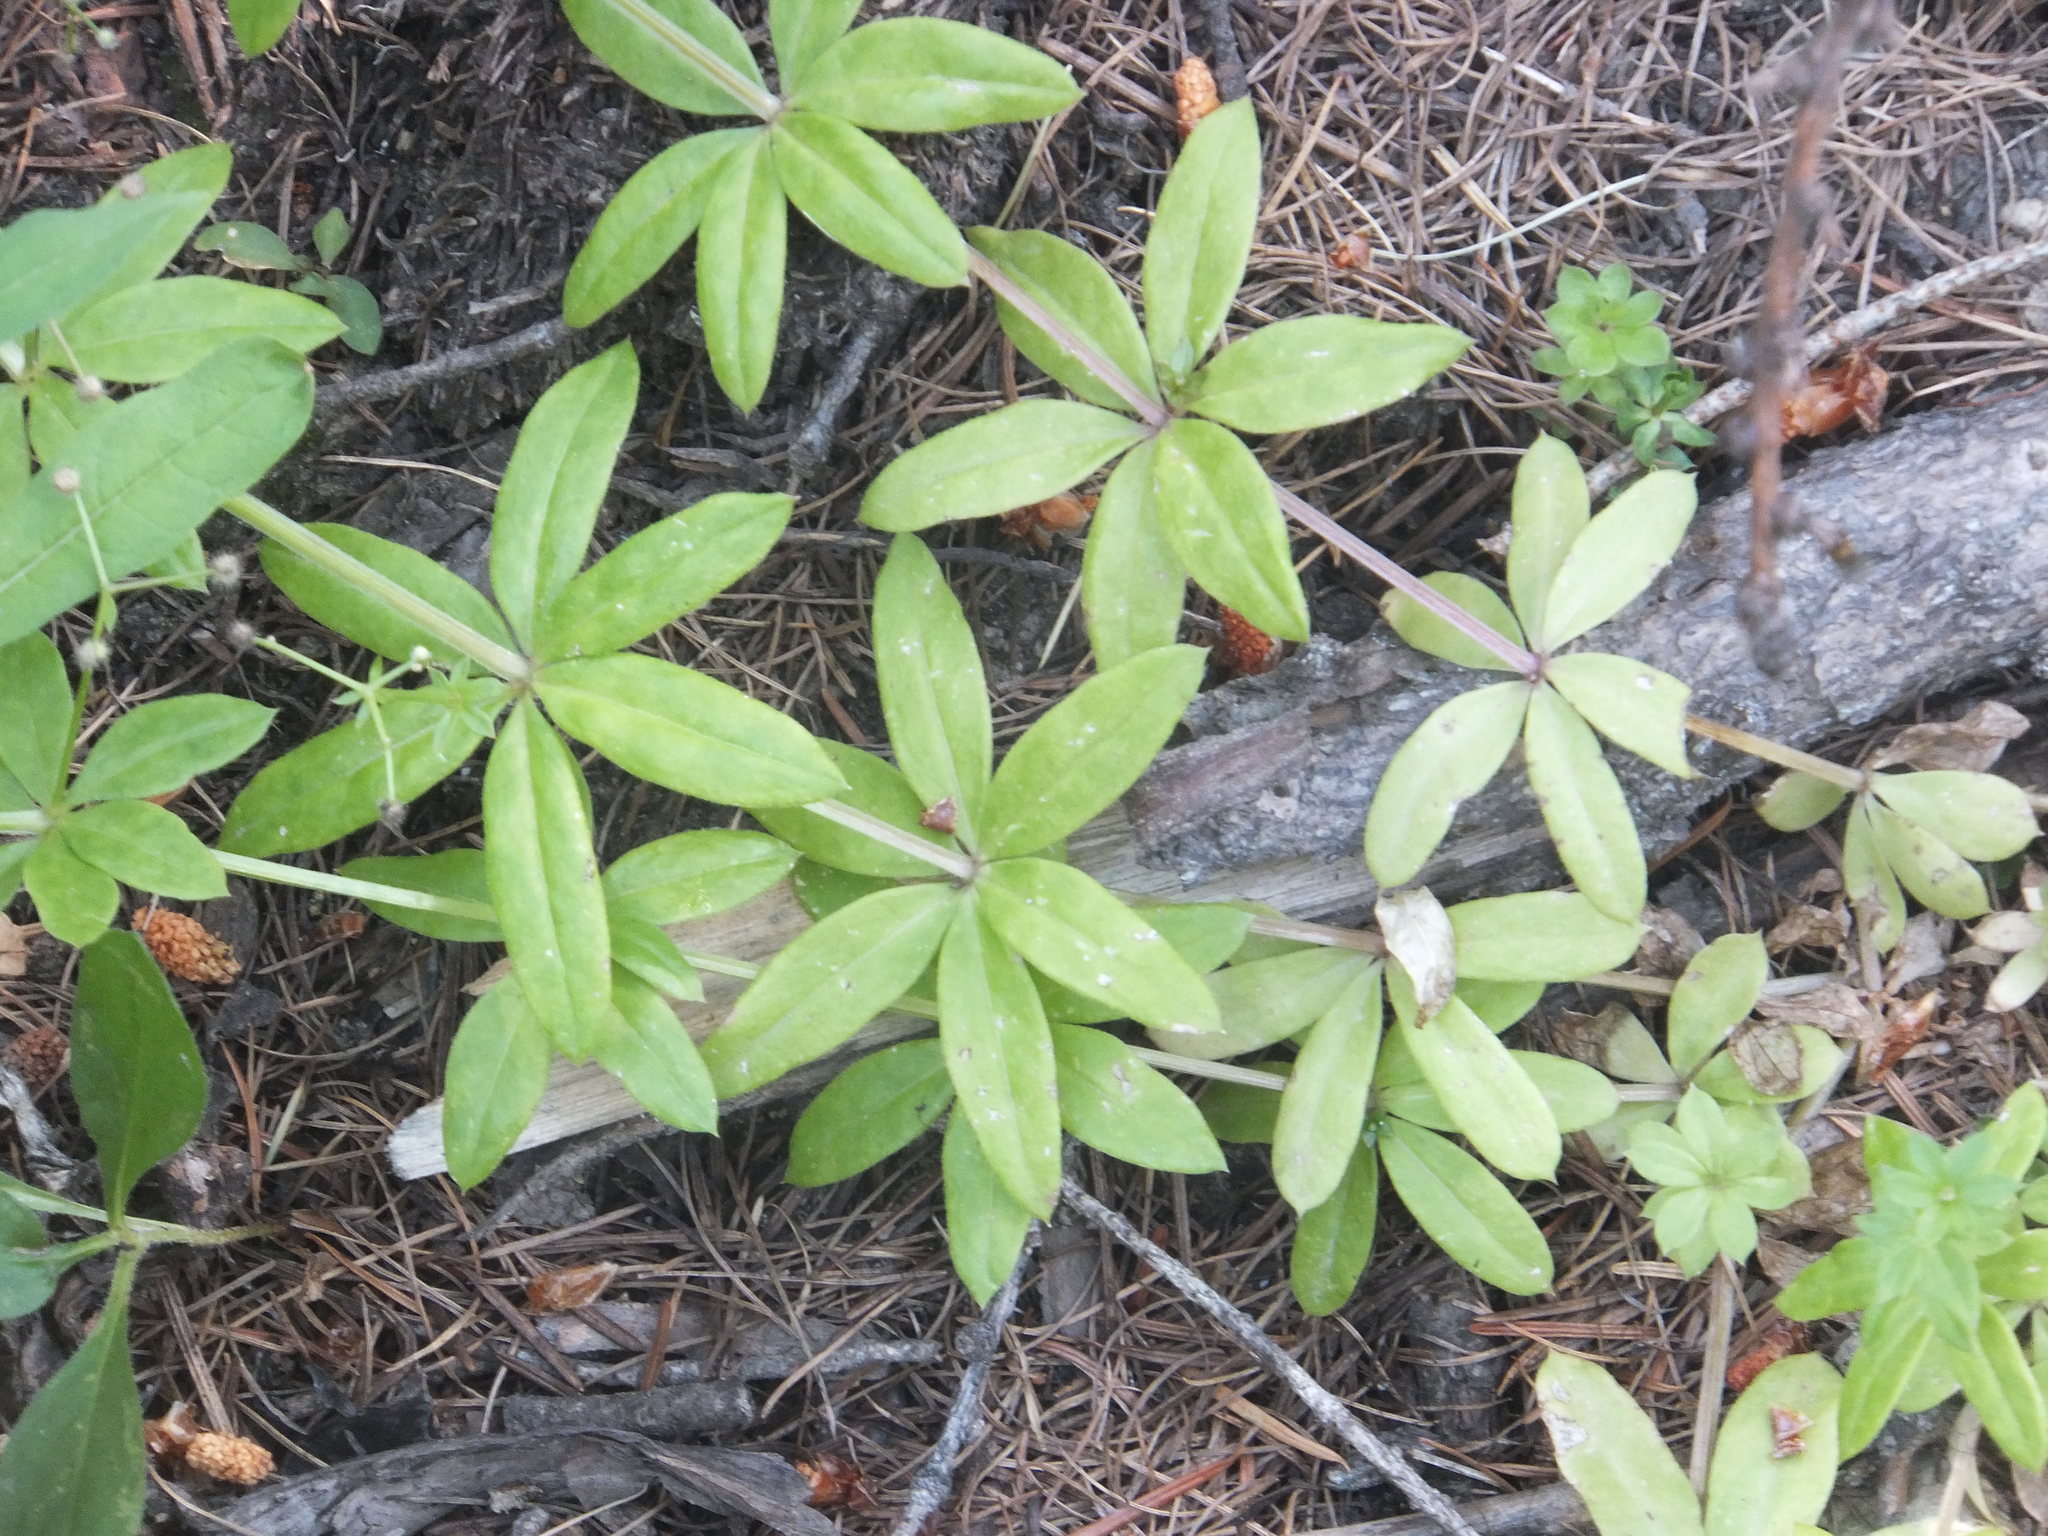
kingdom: Plantae
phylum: Tracheophyta
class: Magnoliopsida
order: Gentianales
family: Rubiaceae
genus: Galium
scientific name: Galium triflorum
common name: Fragrant bedstraw
